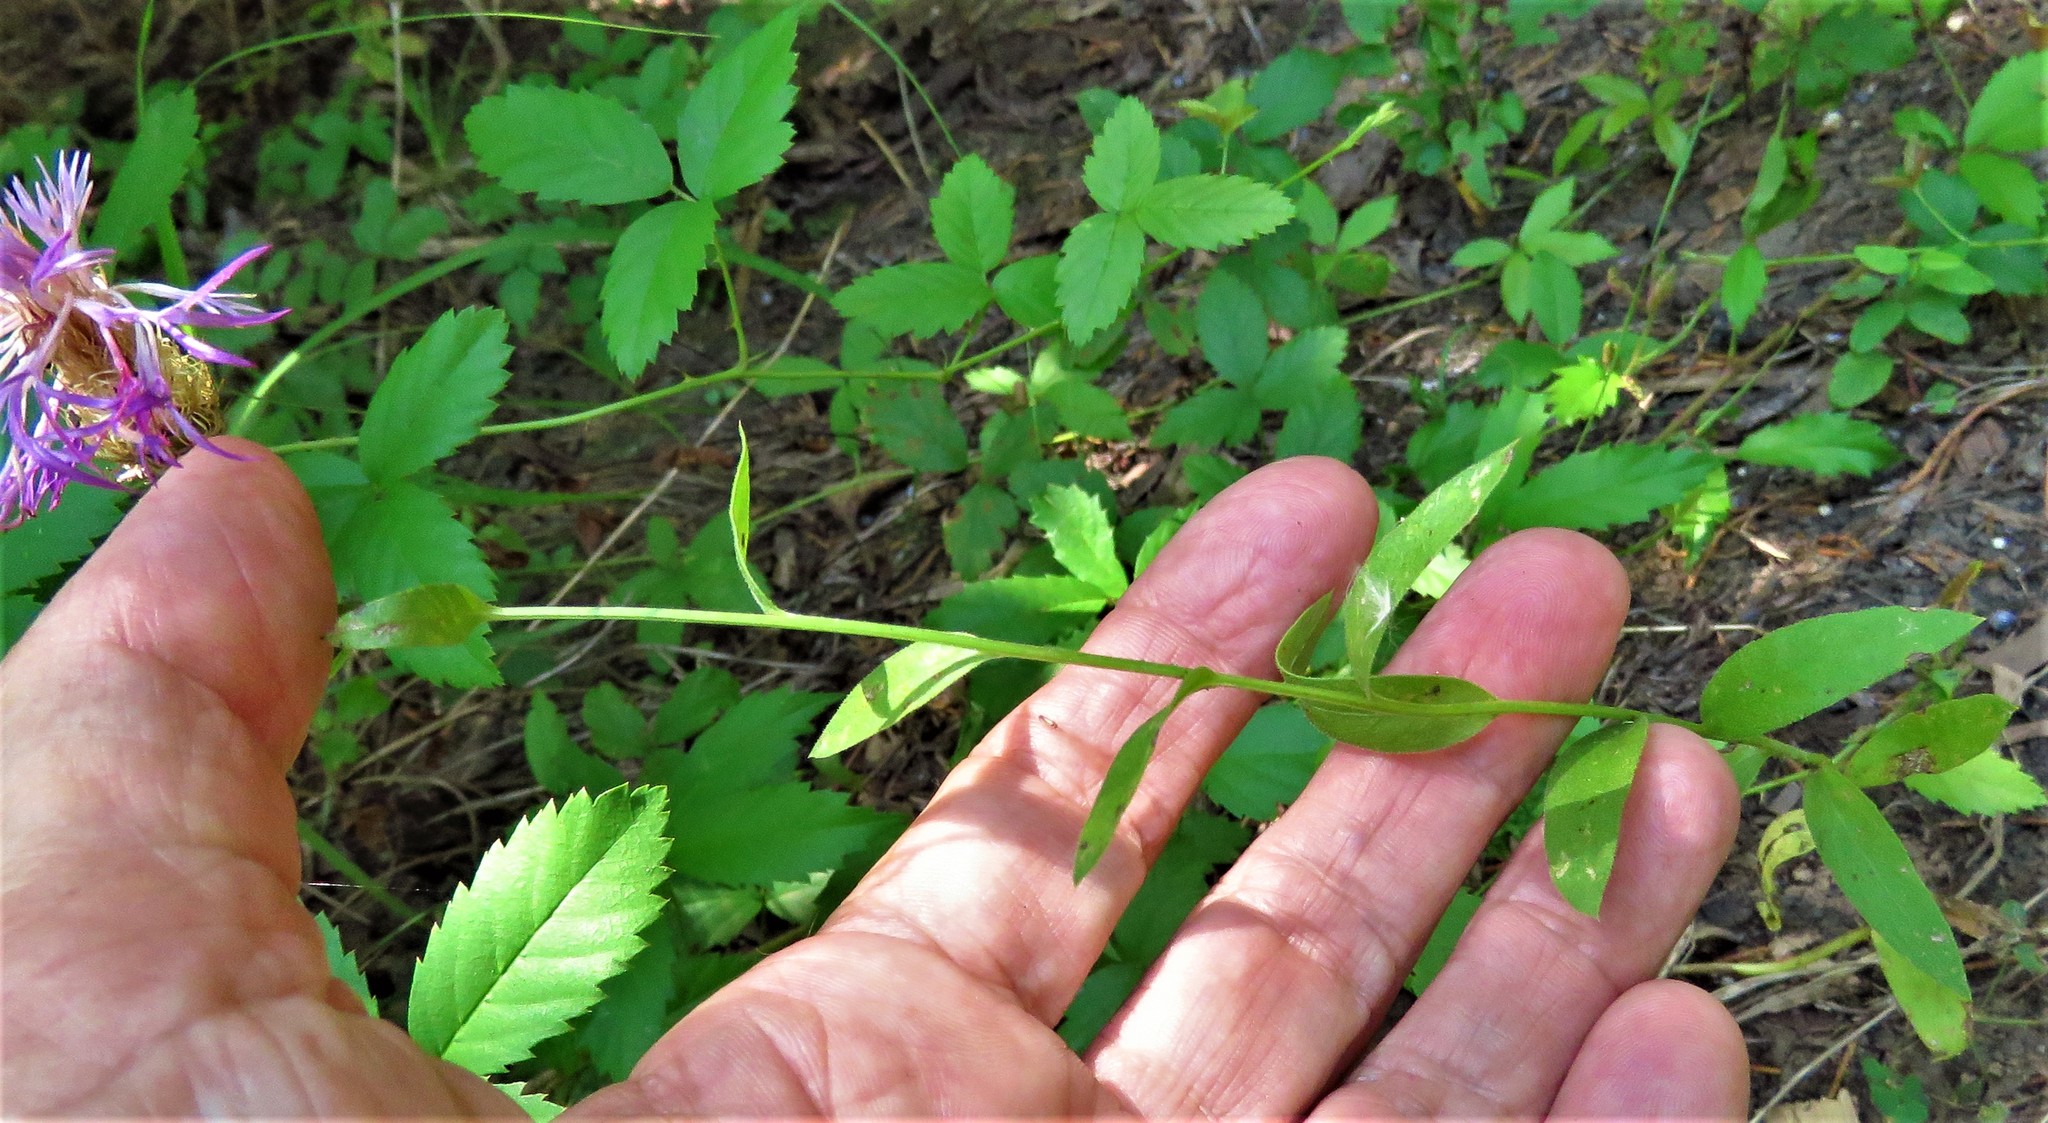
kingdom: Plantae
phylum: Tracheophyta
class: Magnoliopsida
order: Asterales
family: Asteraceae
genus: Plectocephalus
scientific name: Plectocephalus americanus
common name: American basket-flower
